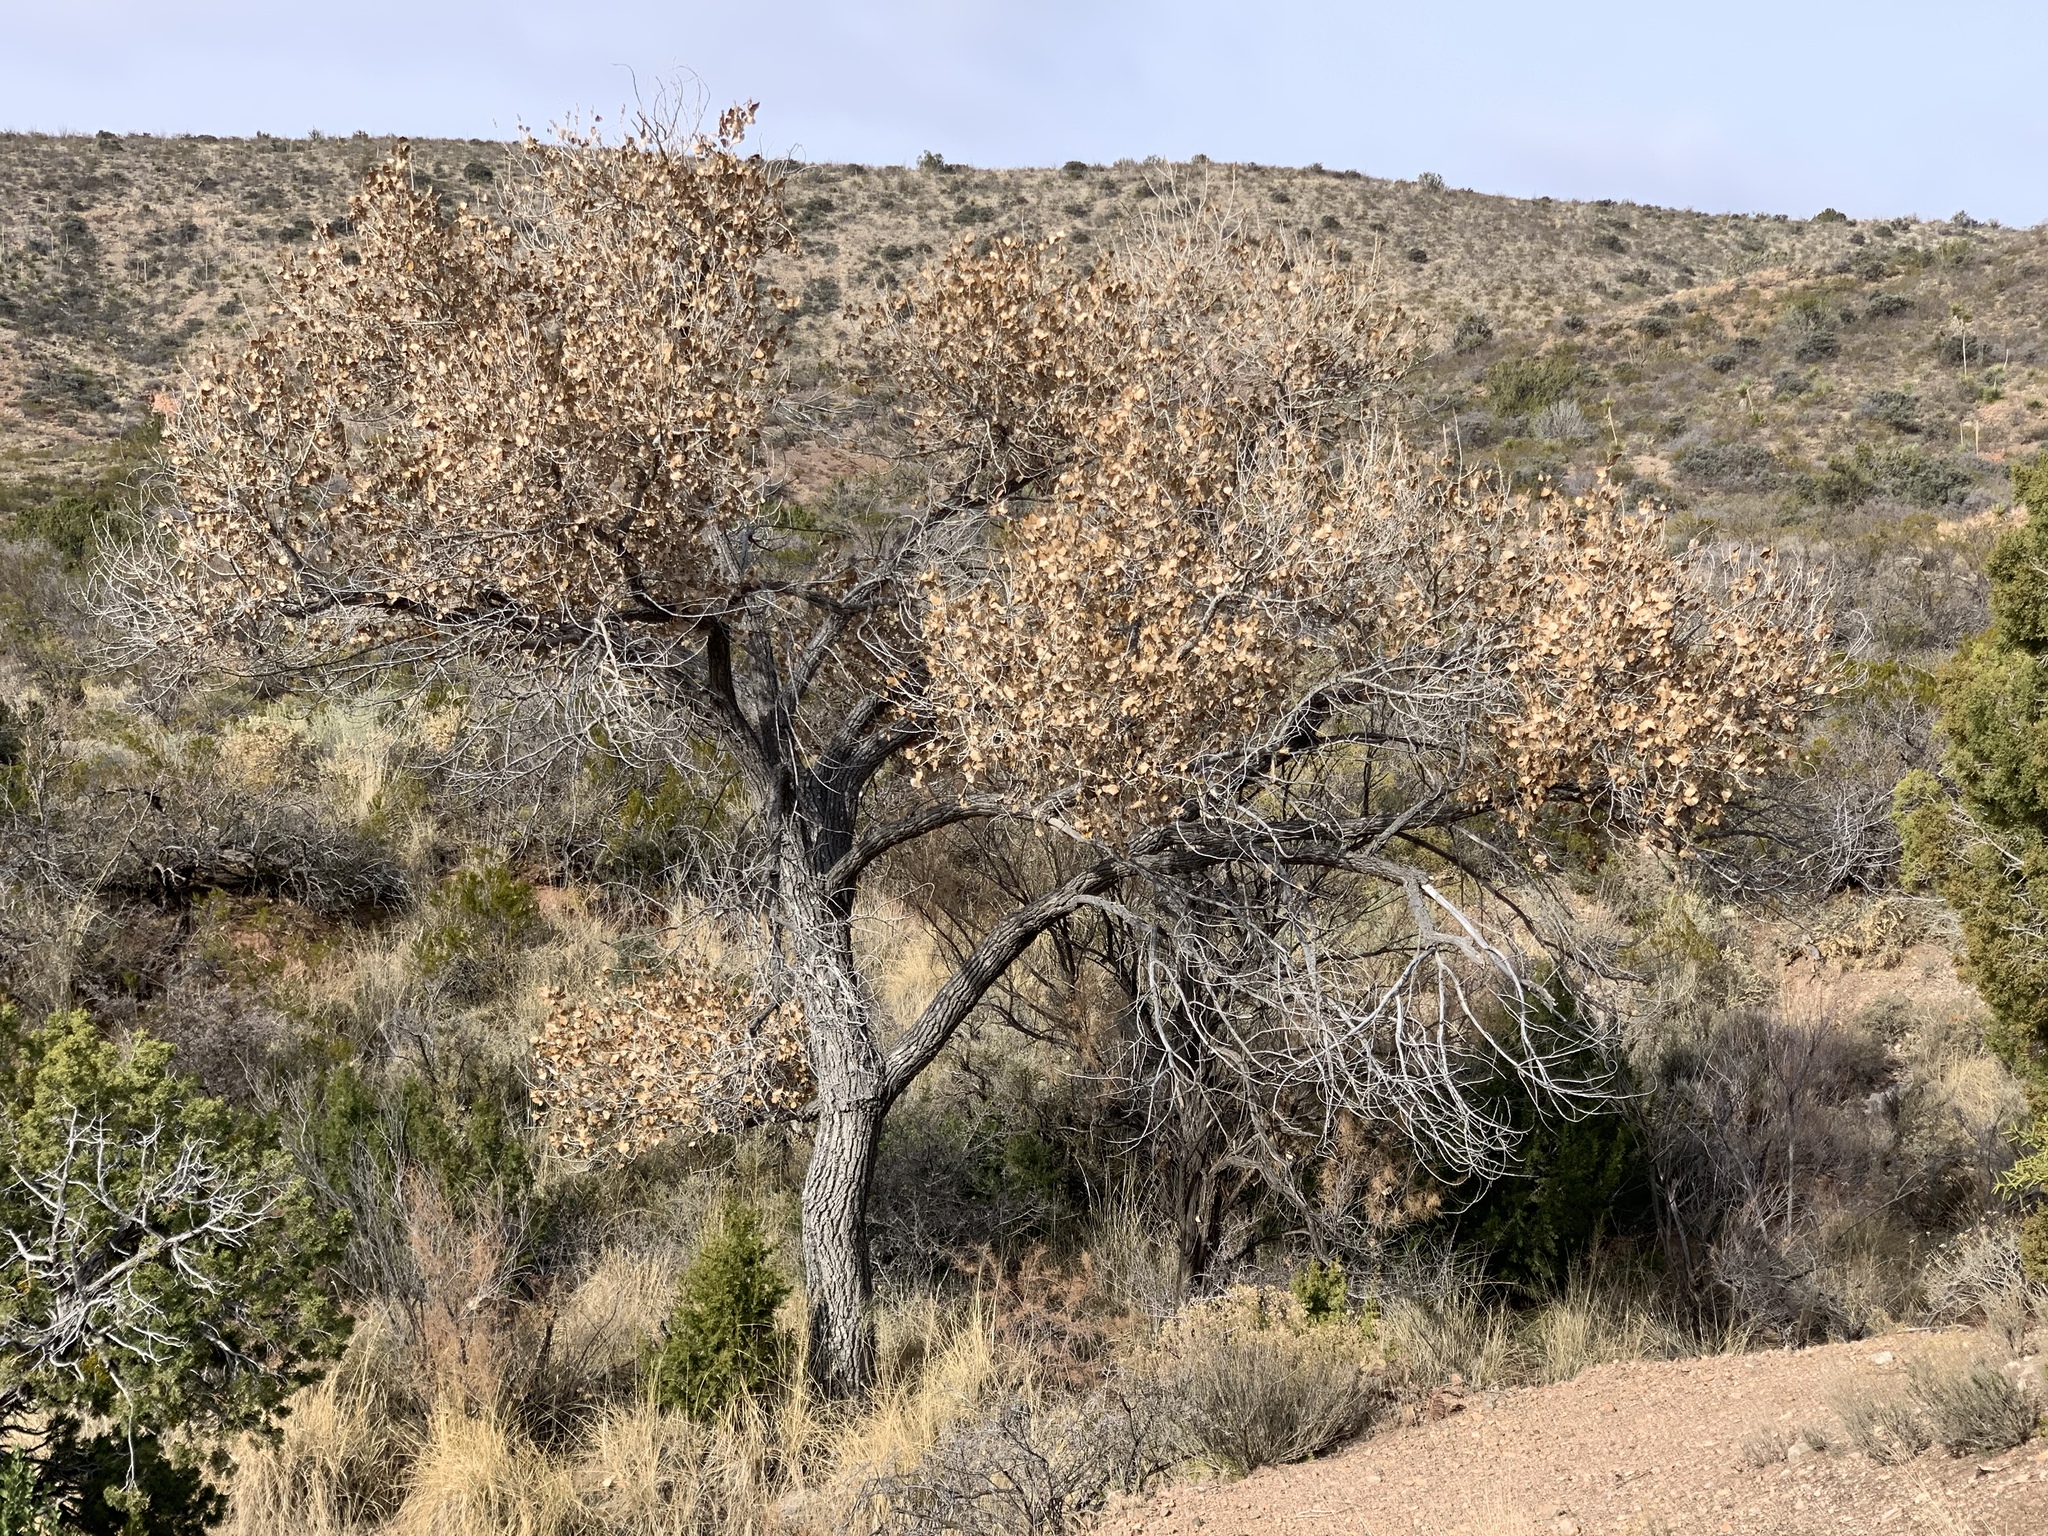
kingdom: Plantae
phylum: Tracheophyta
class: Magnoliopsida
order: Malpighiales
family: Salicaceae
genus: Populus
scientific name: Populus fremontii
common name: Fremont's cottonwood
